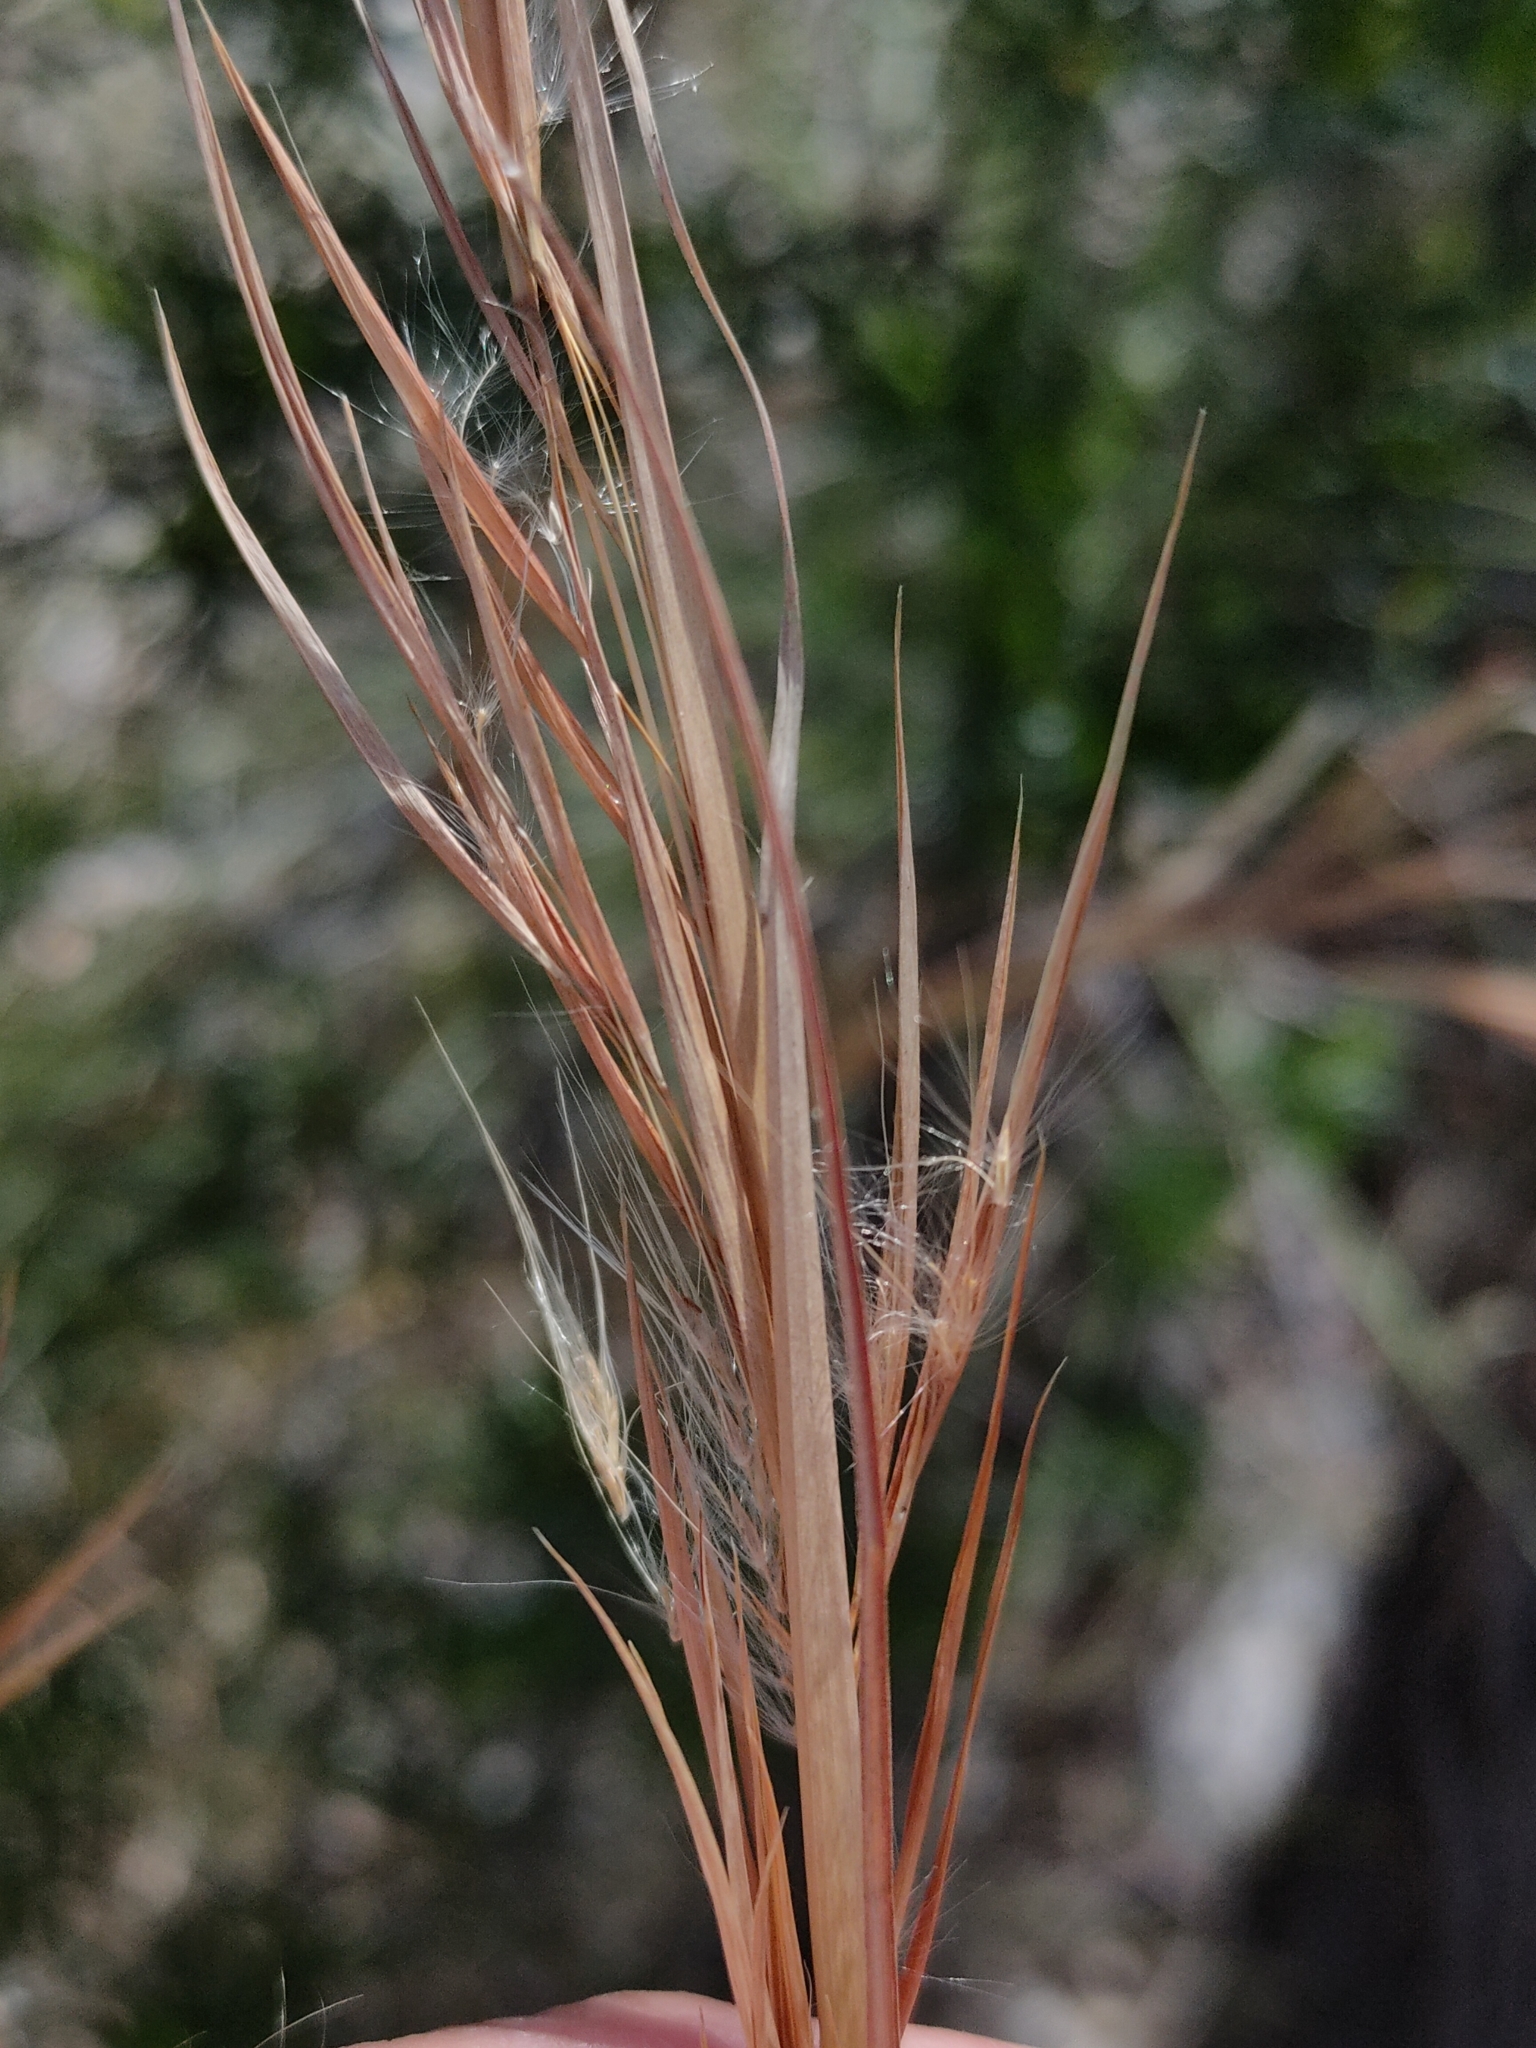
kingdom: Plantae
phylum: Tracheophyta
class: Liliopsida
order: Poales
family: Poaceae
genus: Andropogon
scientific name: Andropogon virginicus
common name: Broomsedge bluestem
